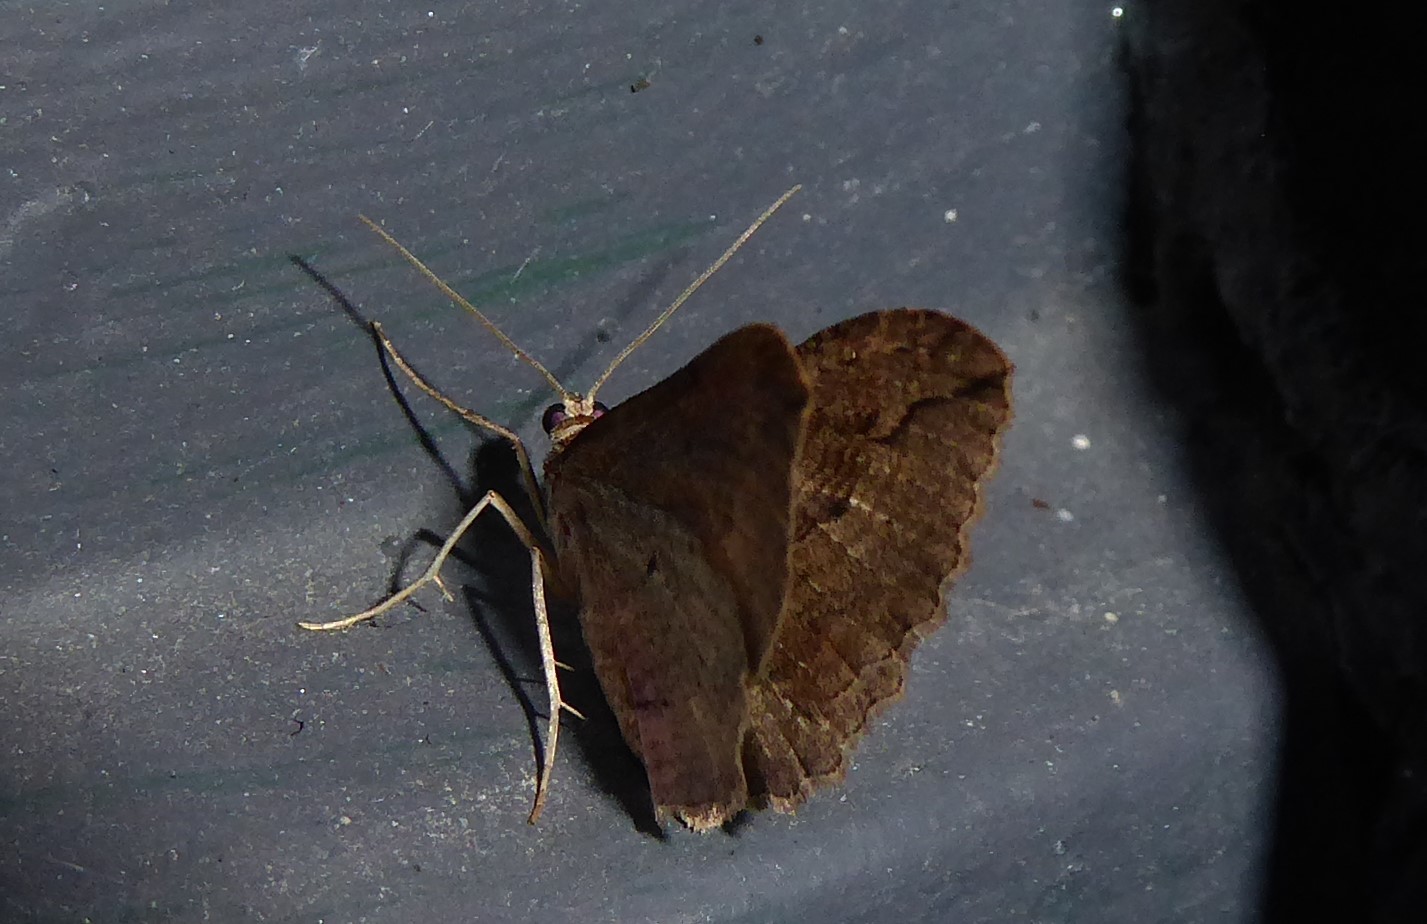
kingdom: Animalia
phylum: Arthropoda
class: Insecta
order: Lepidoptera
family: Geometridae
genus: Austrocidaria
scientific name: Austrocidaria gobiata
